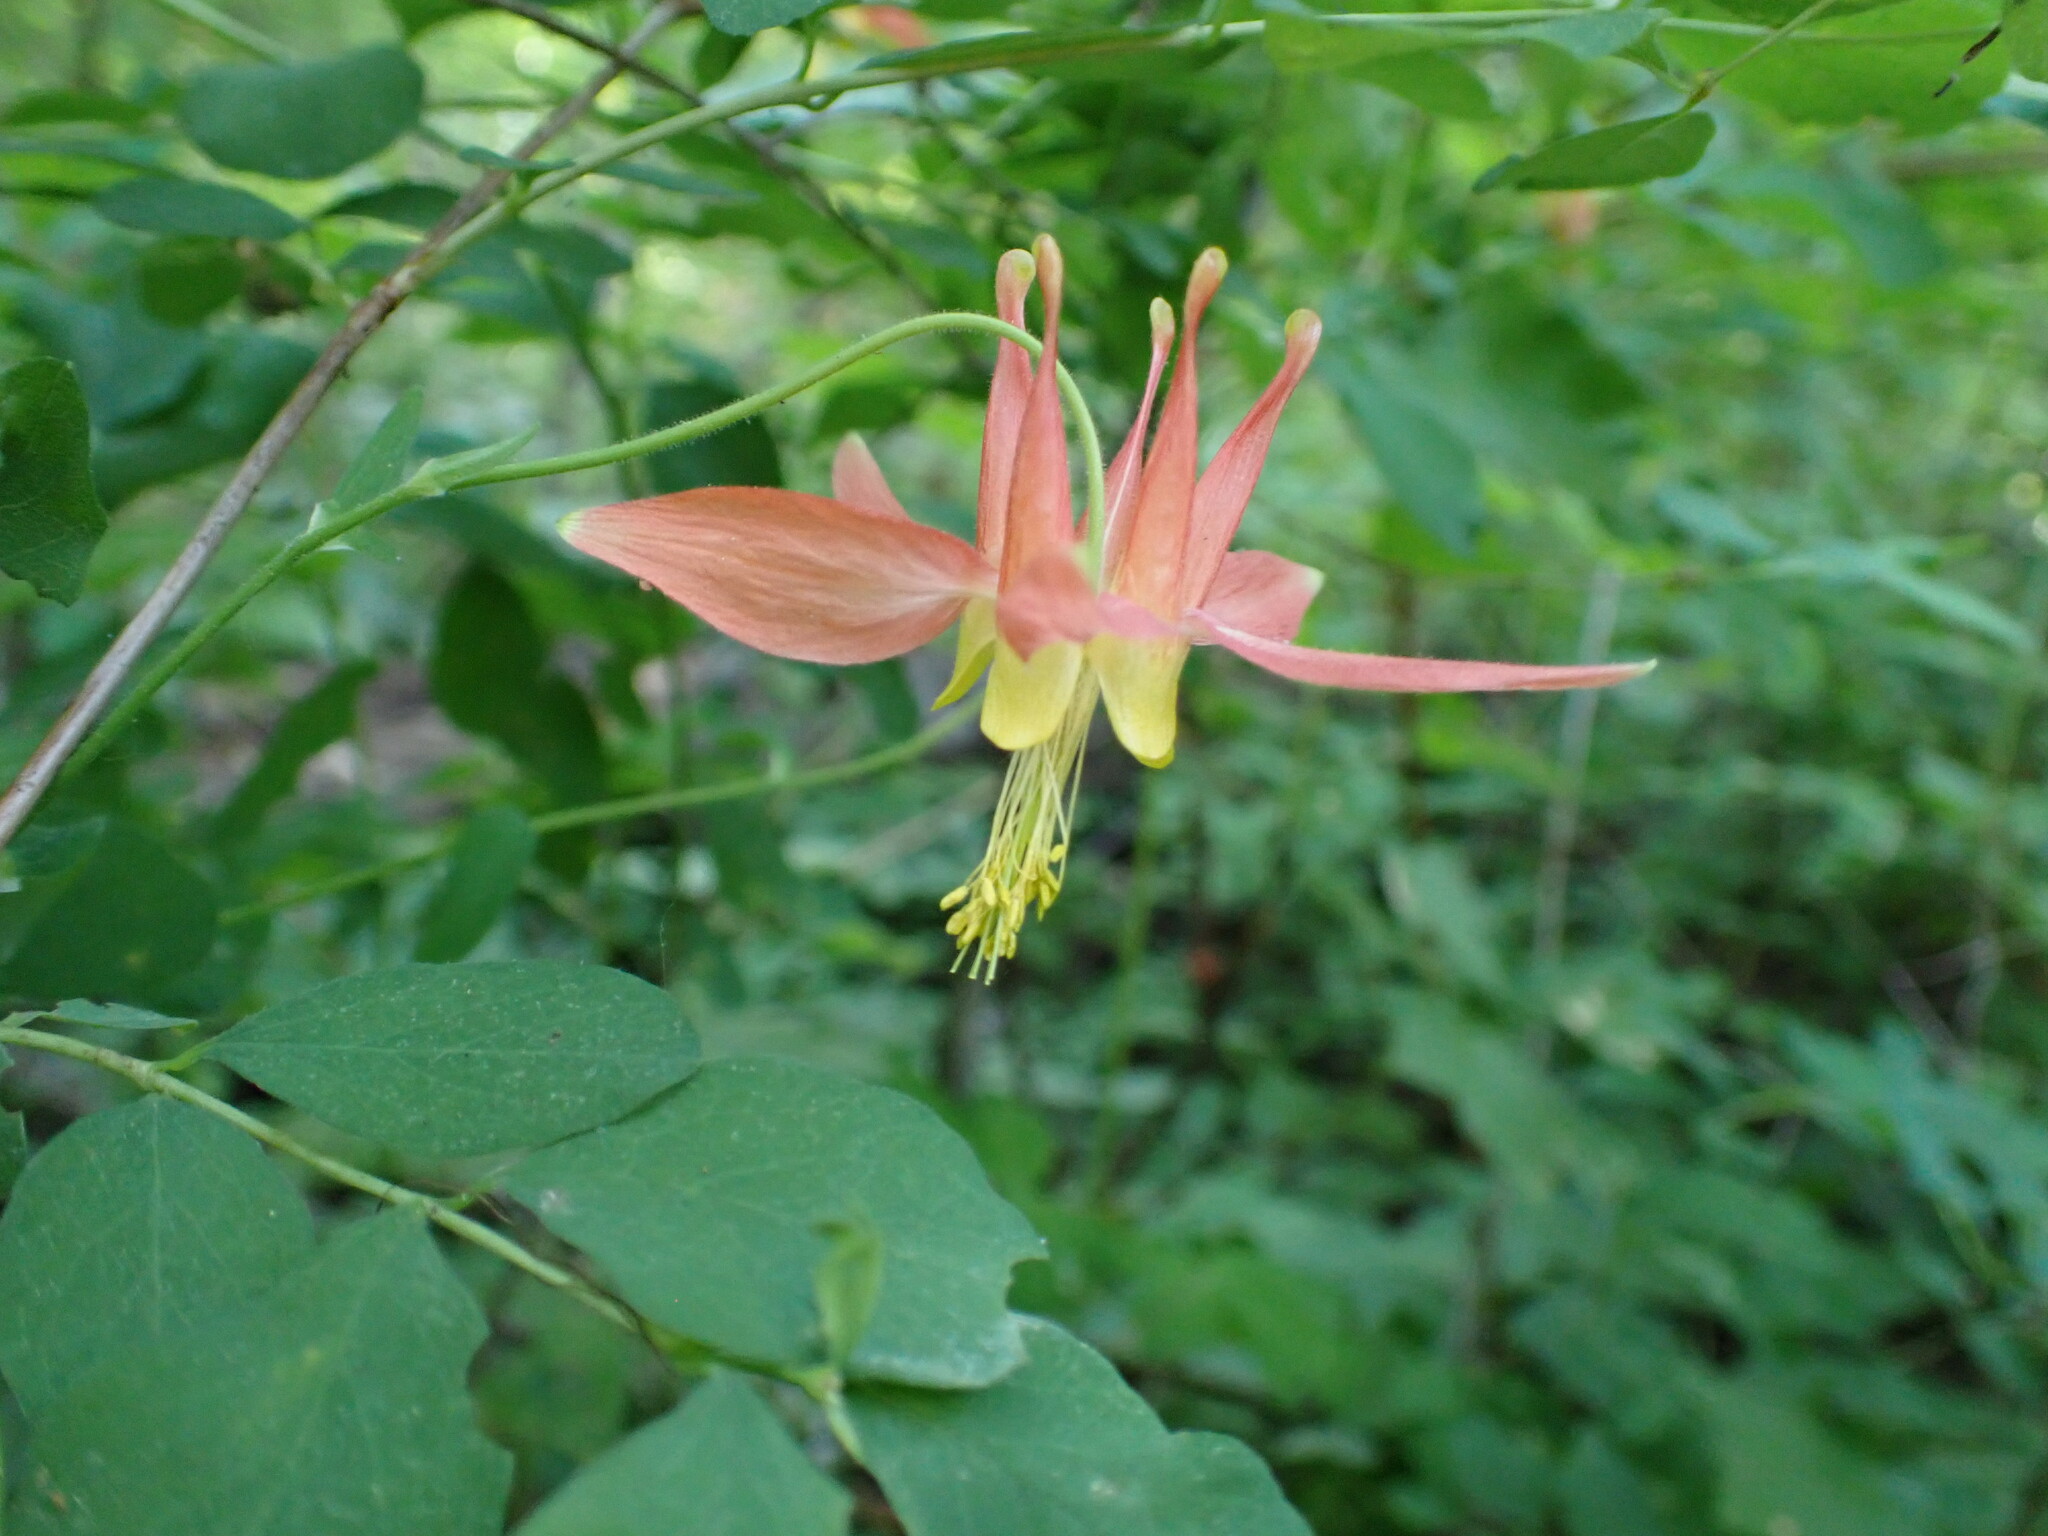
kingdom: Plantae
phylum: Tracheophyta
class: Magnoliopsida
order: Ranunculales
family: Ranunculaceae
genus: Aquilegia
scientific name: Aquilegia formosa
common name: Sitka columbine
